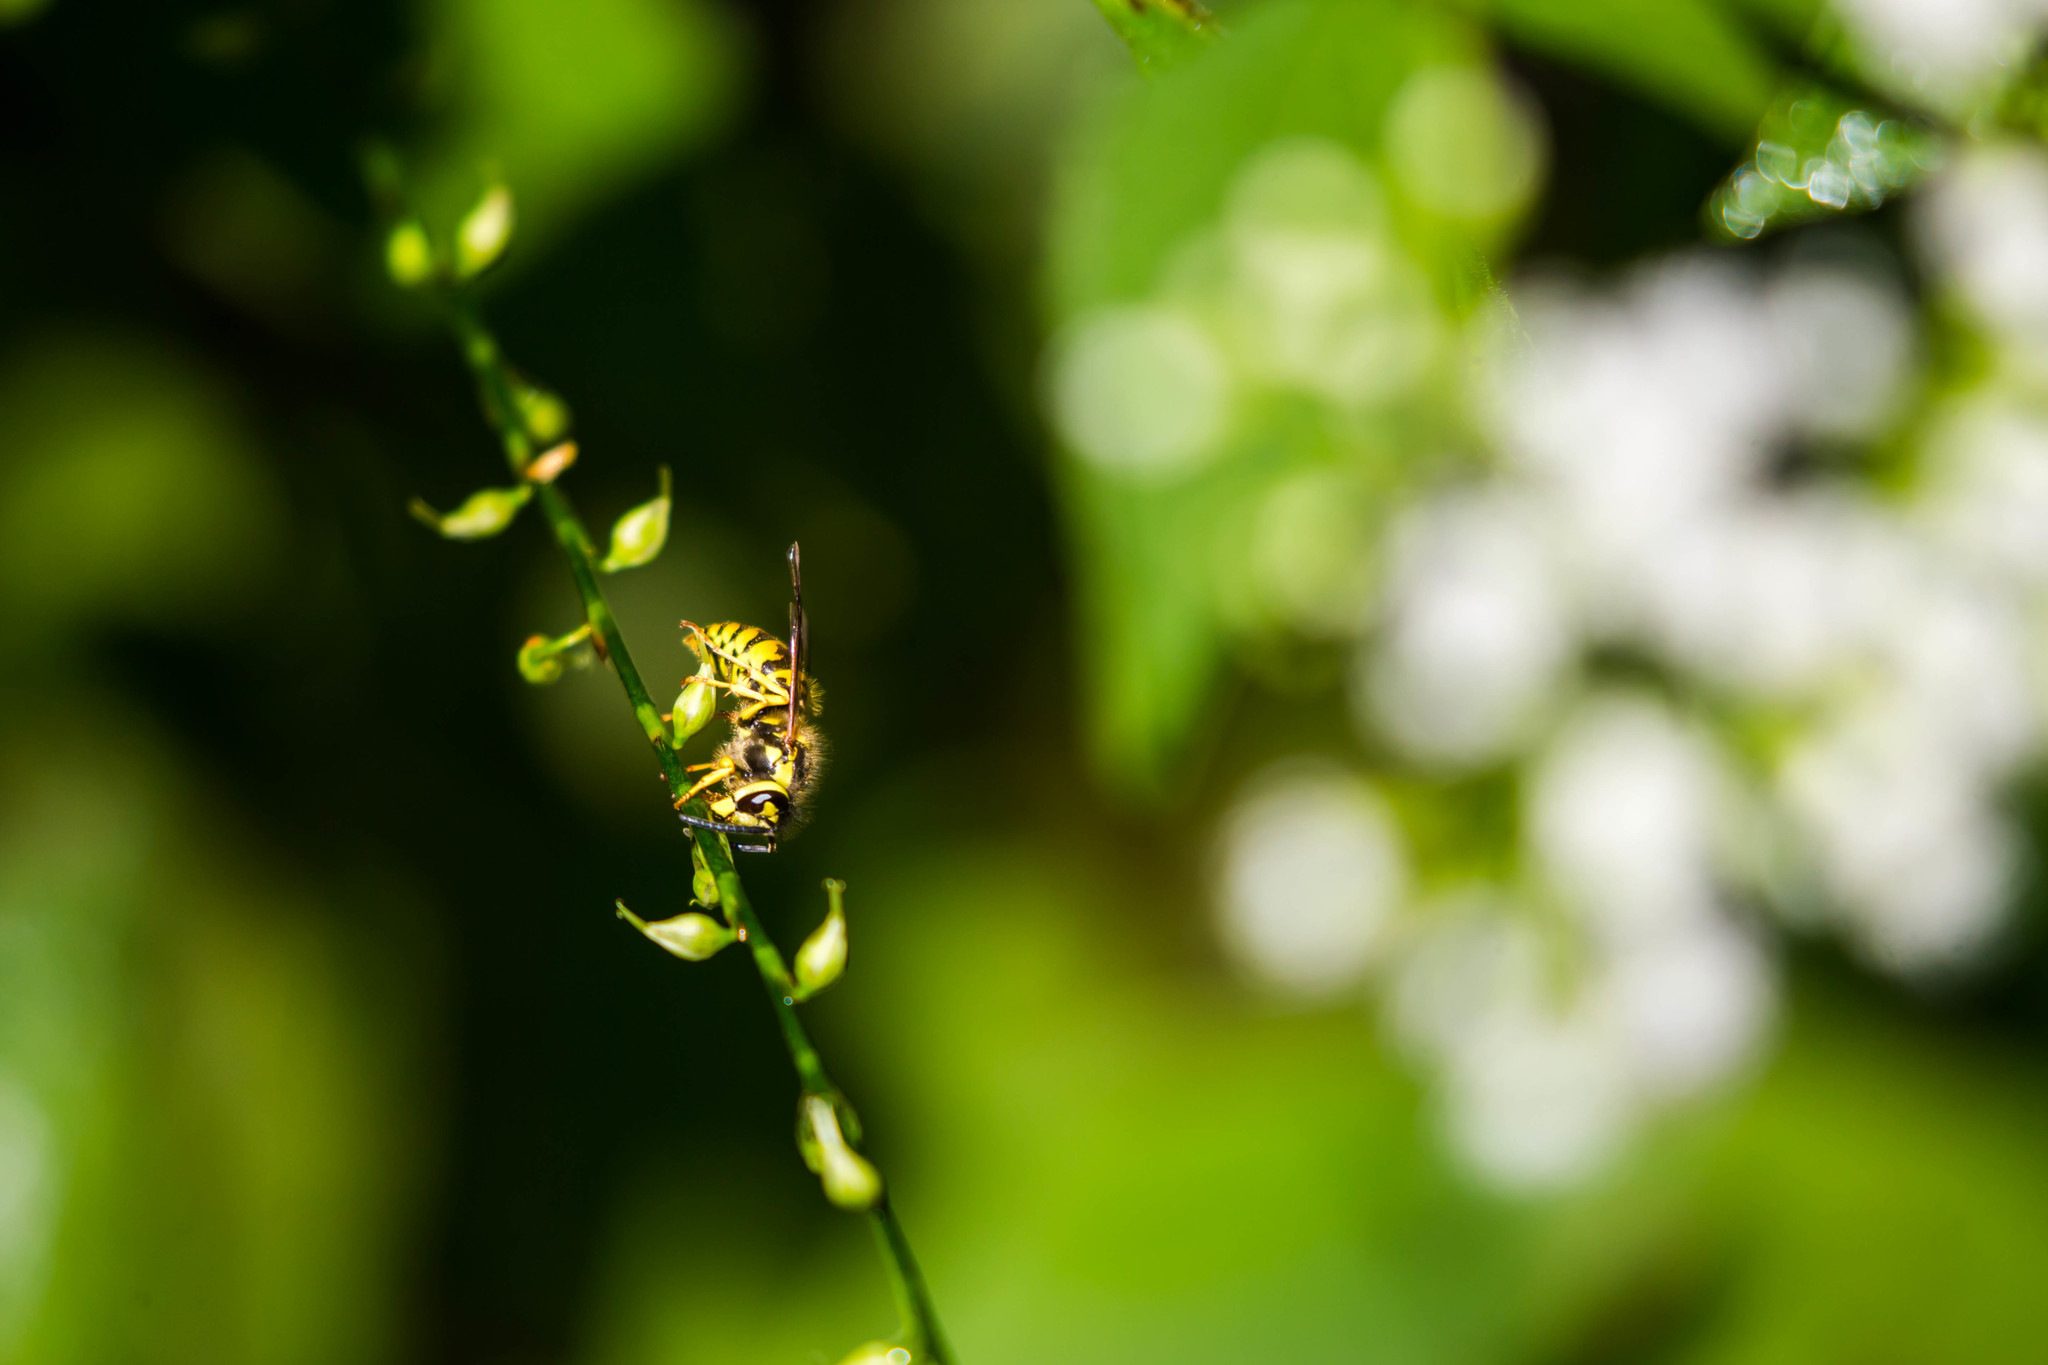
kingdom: Animalia
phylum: Arthropoda
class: Insecta
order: Hymenoptera
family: Vespidae
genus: Vespula
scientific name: Vespula
